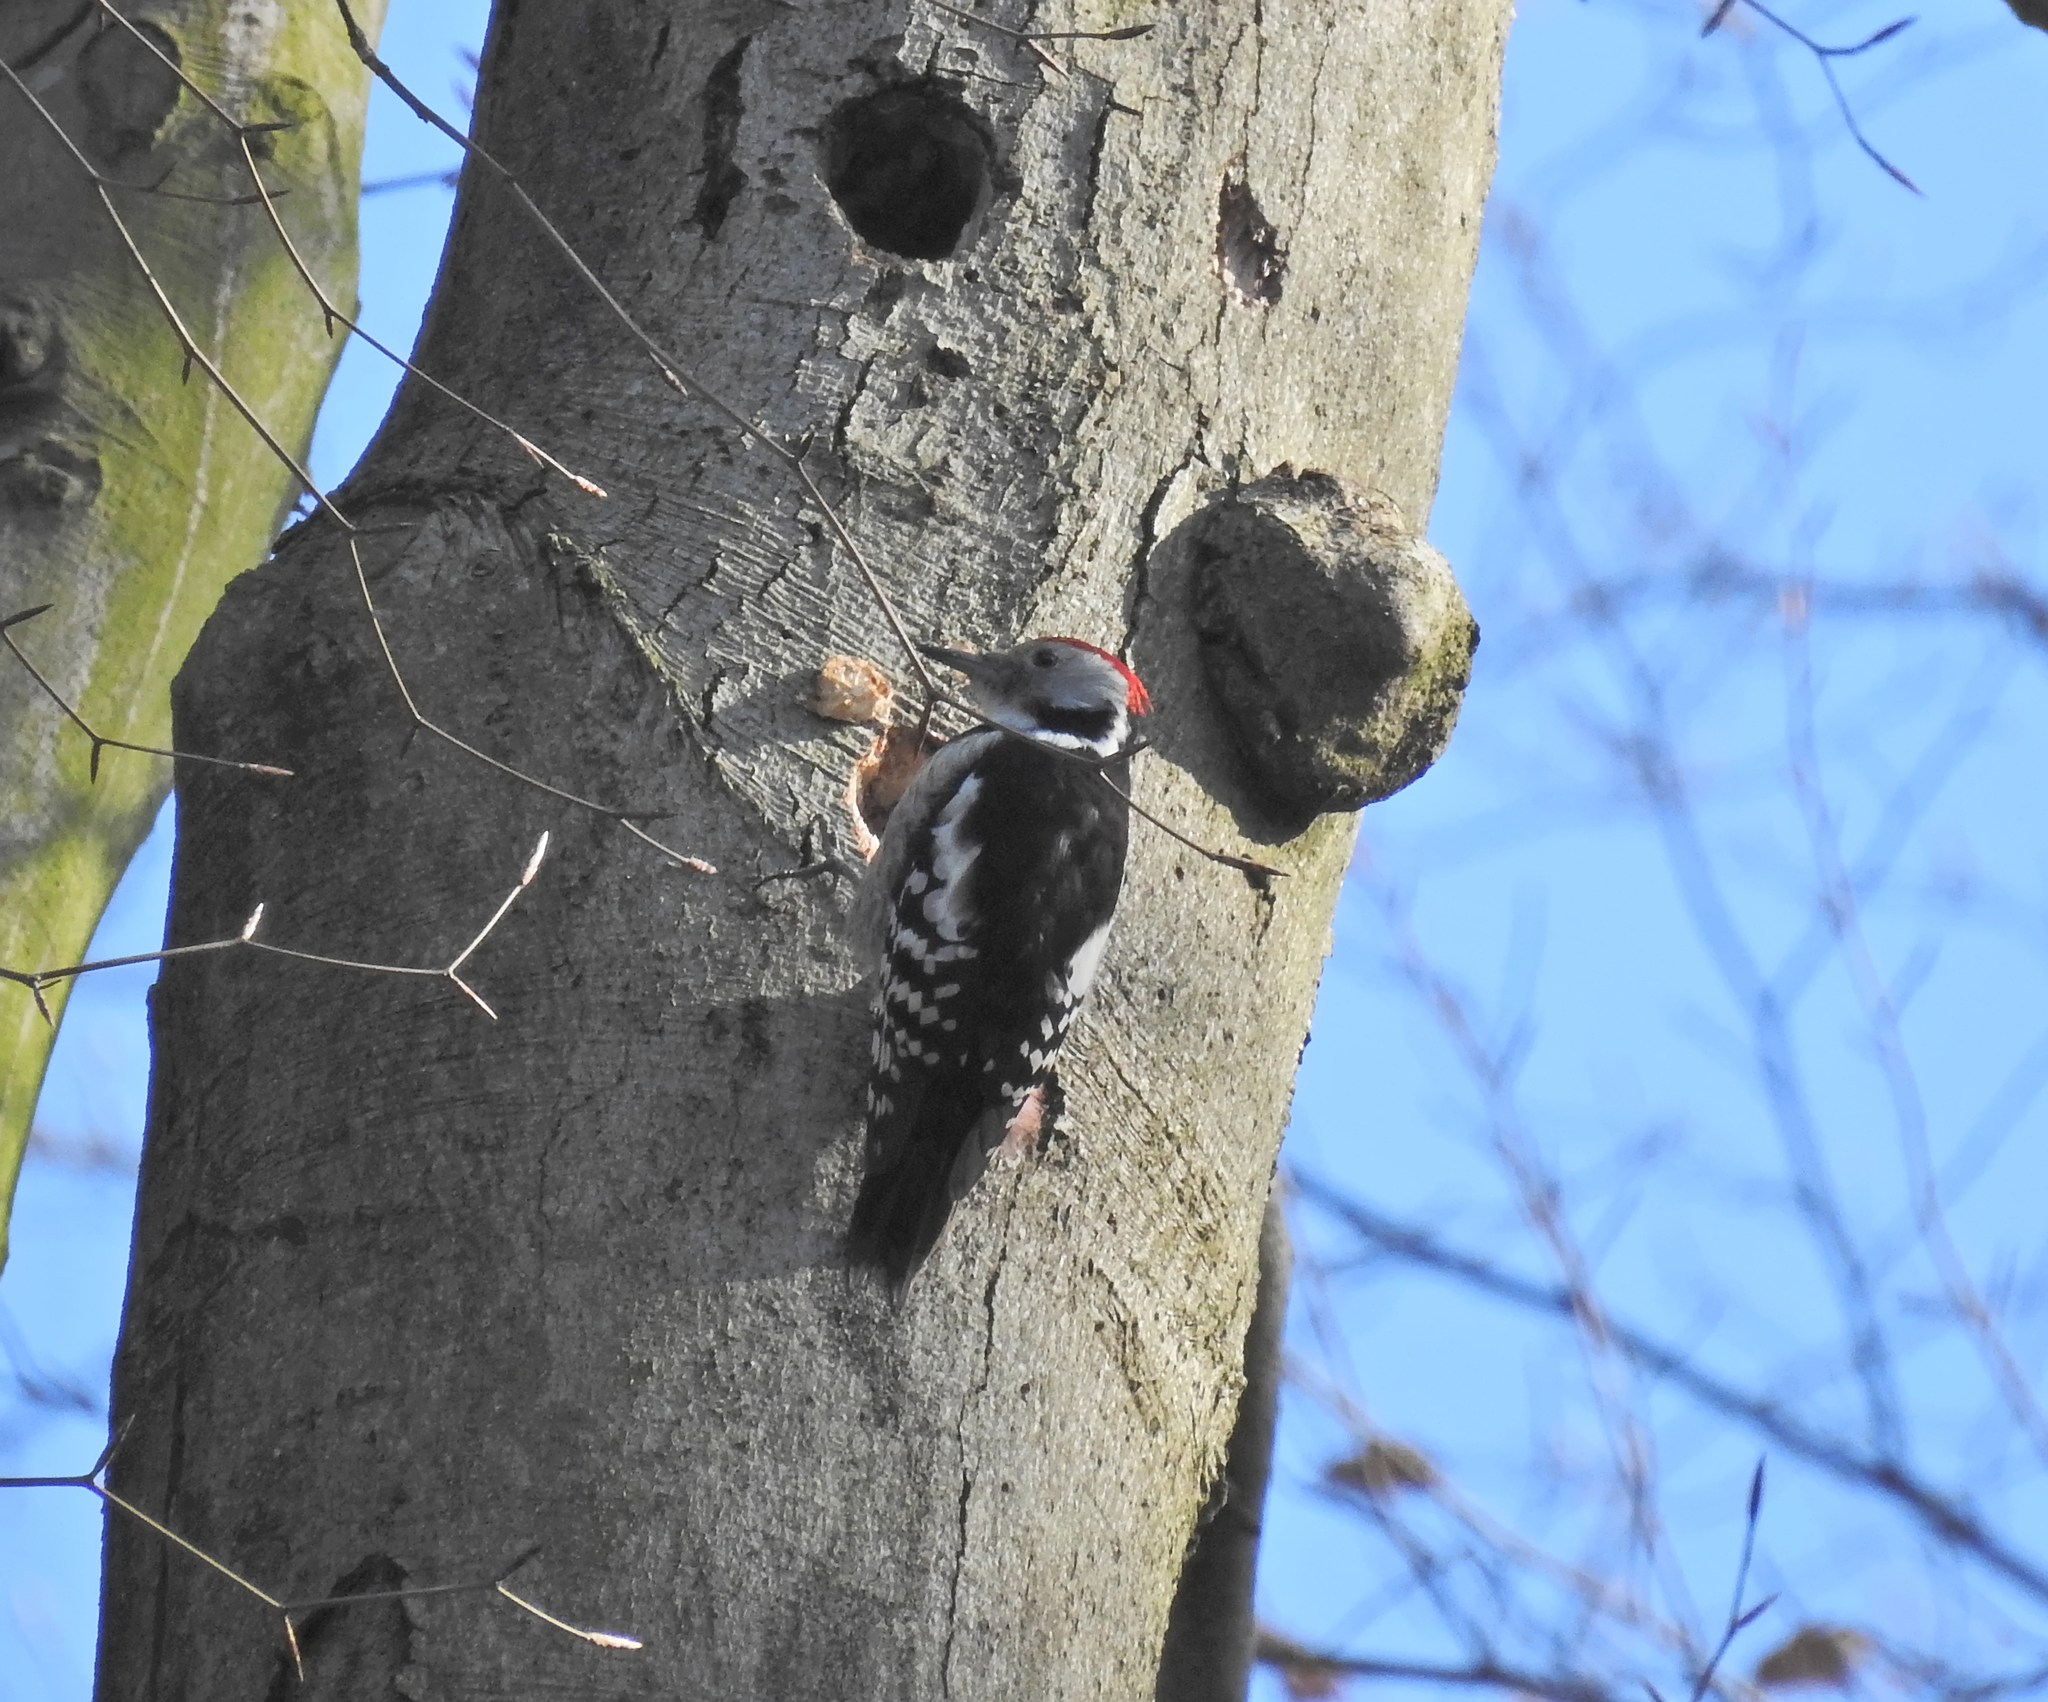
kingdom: Animalia
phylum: Chordata
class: Aves
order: Piciformes
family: Picidae
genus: Dendrocoptes
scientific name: Dendrocoptes medius
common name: Middle spotted woodpecker
